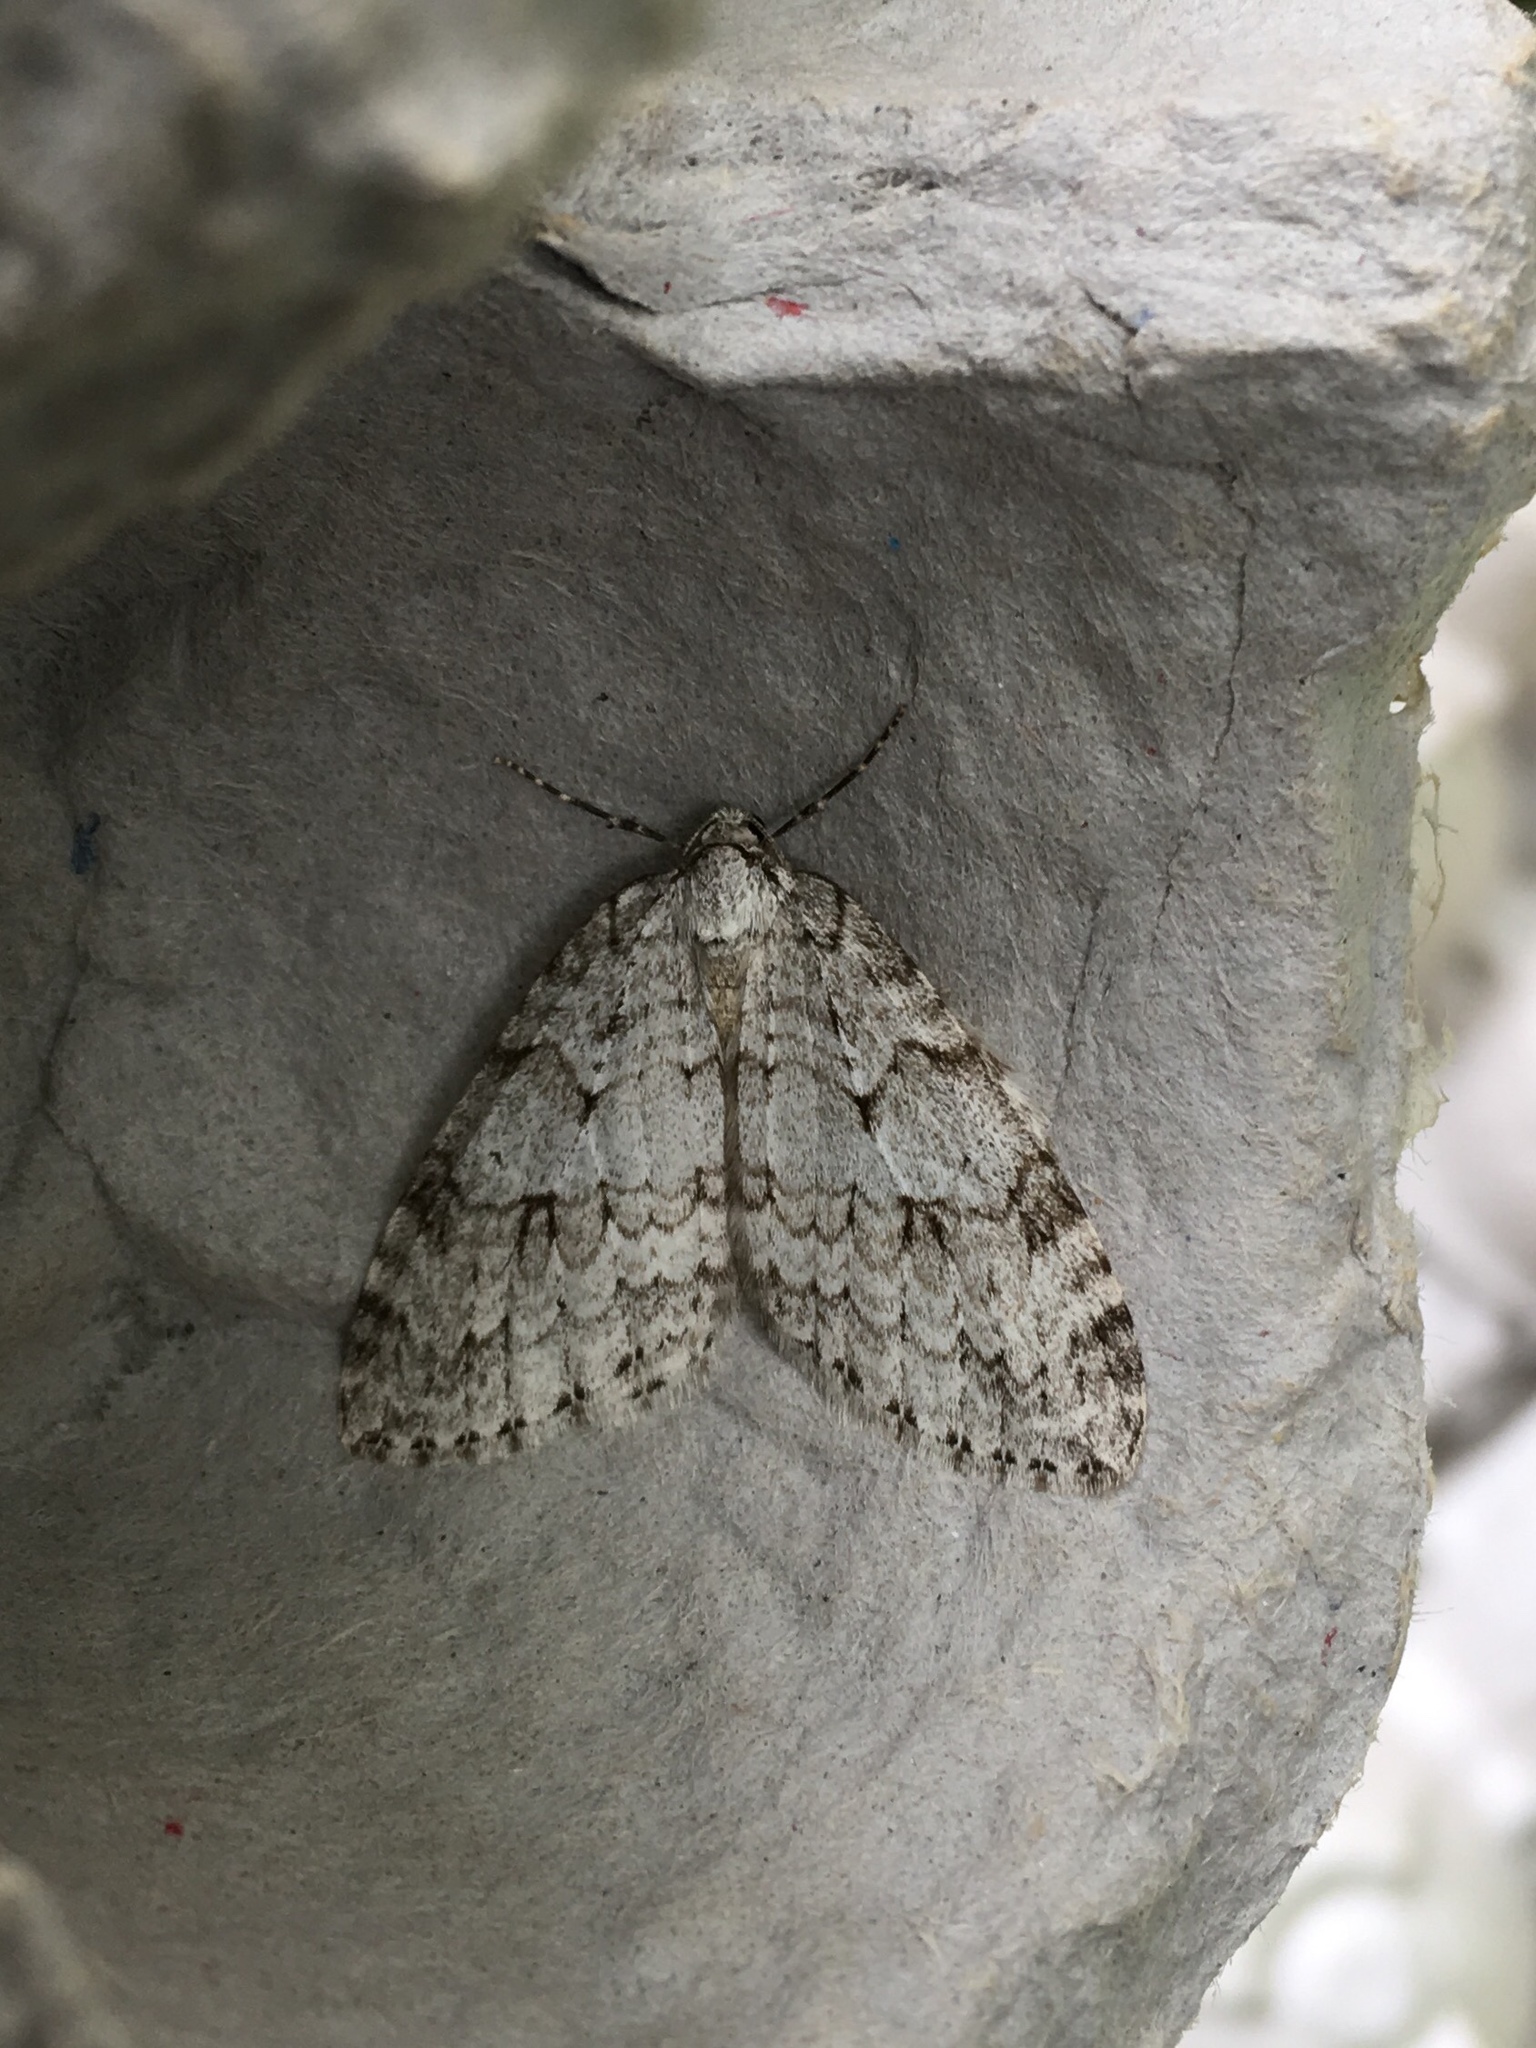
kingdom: Animalia
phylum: Arthropoda
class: Insecta
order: Lepidoptera
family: Geometridae
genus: Epirrita
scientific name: Epirrita autumnata
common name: Autumnal moth
